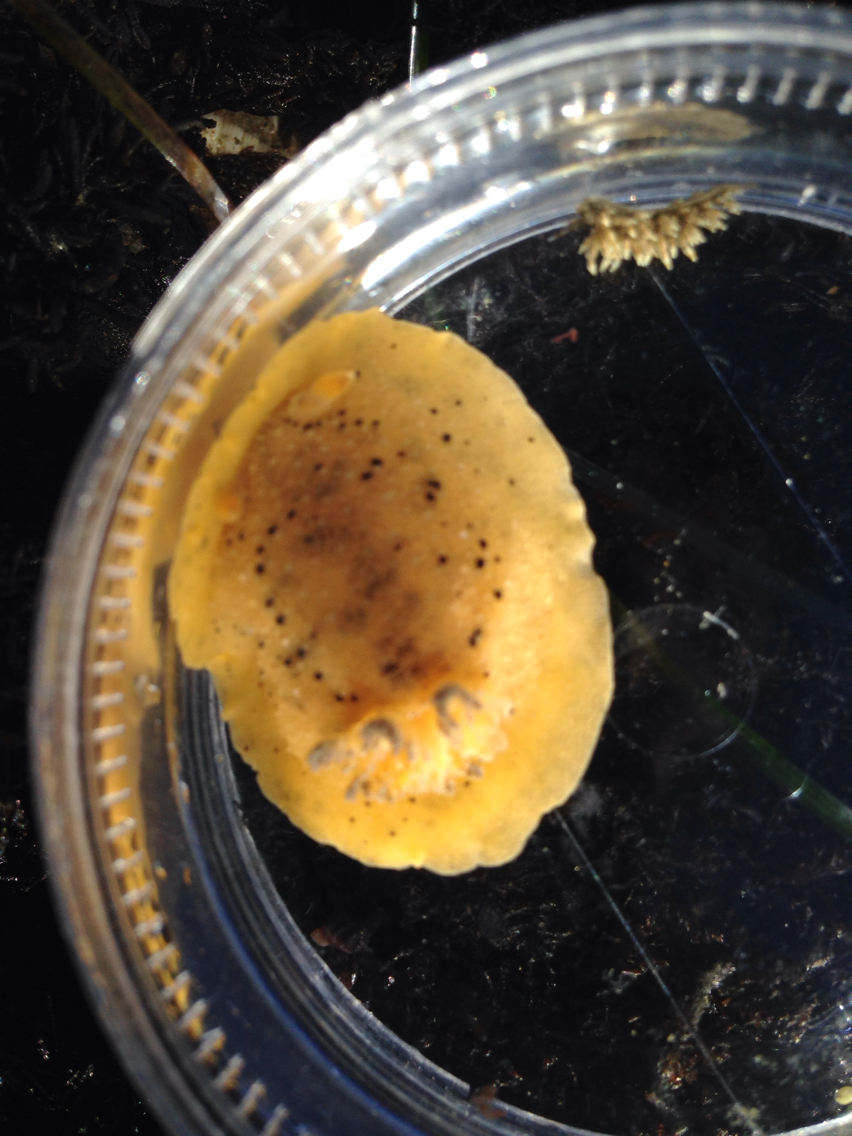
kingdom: Animalia
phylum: Mollusca
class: Gastropoda
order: Nudibranchia
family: Discodorididae
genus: Geitodoris
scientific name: Geitodoris heathi
